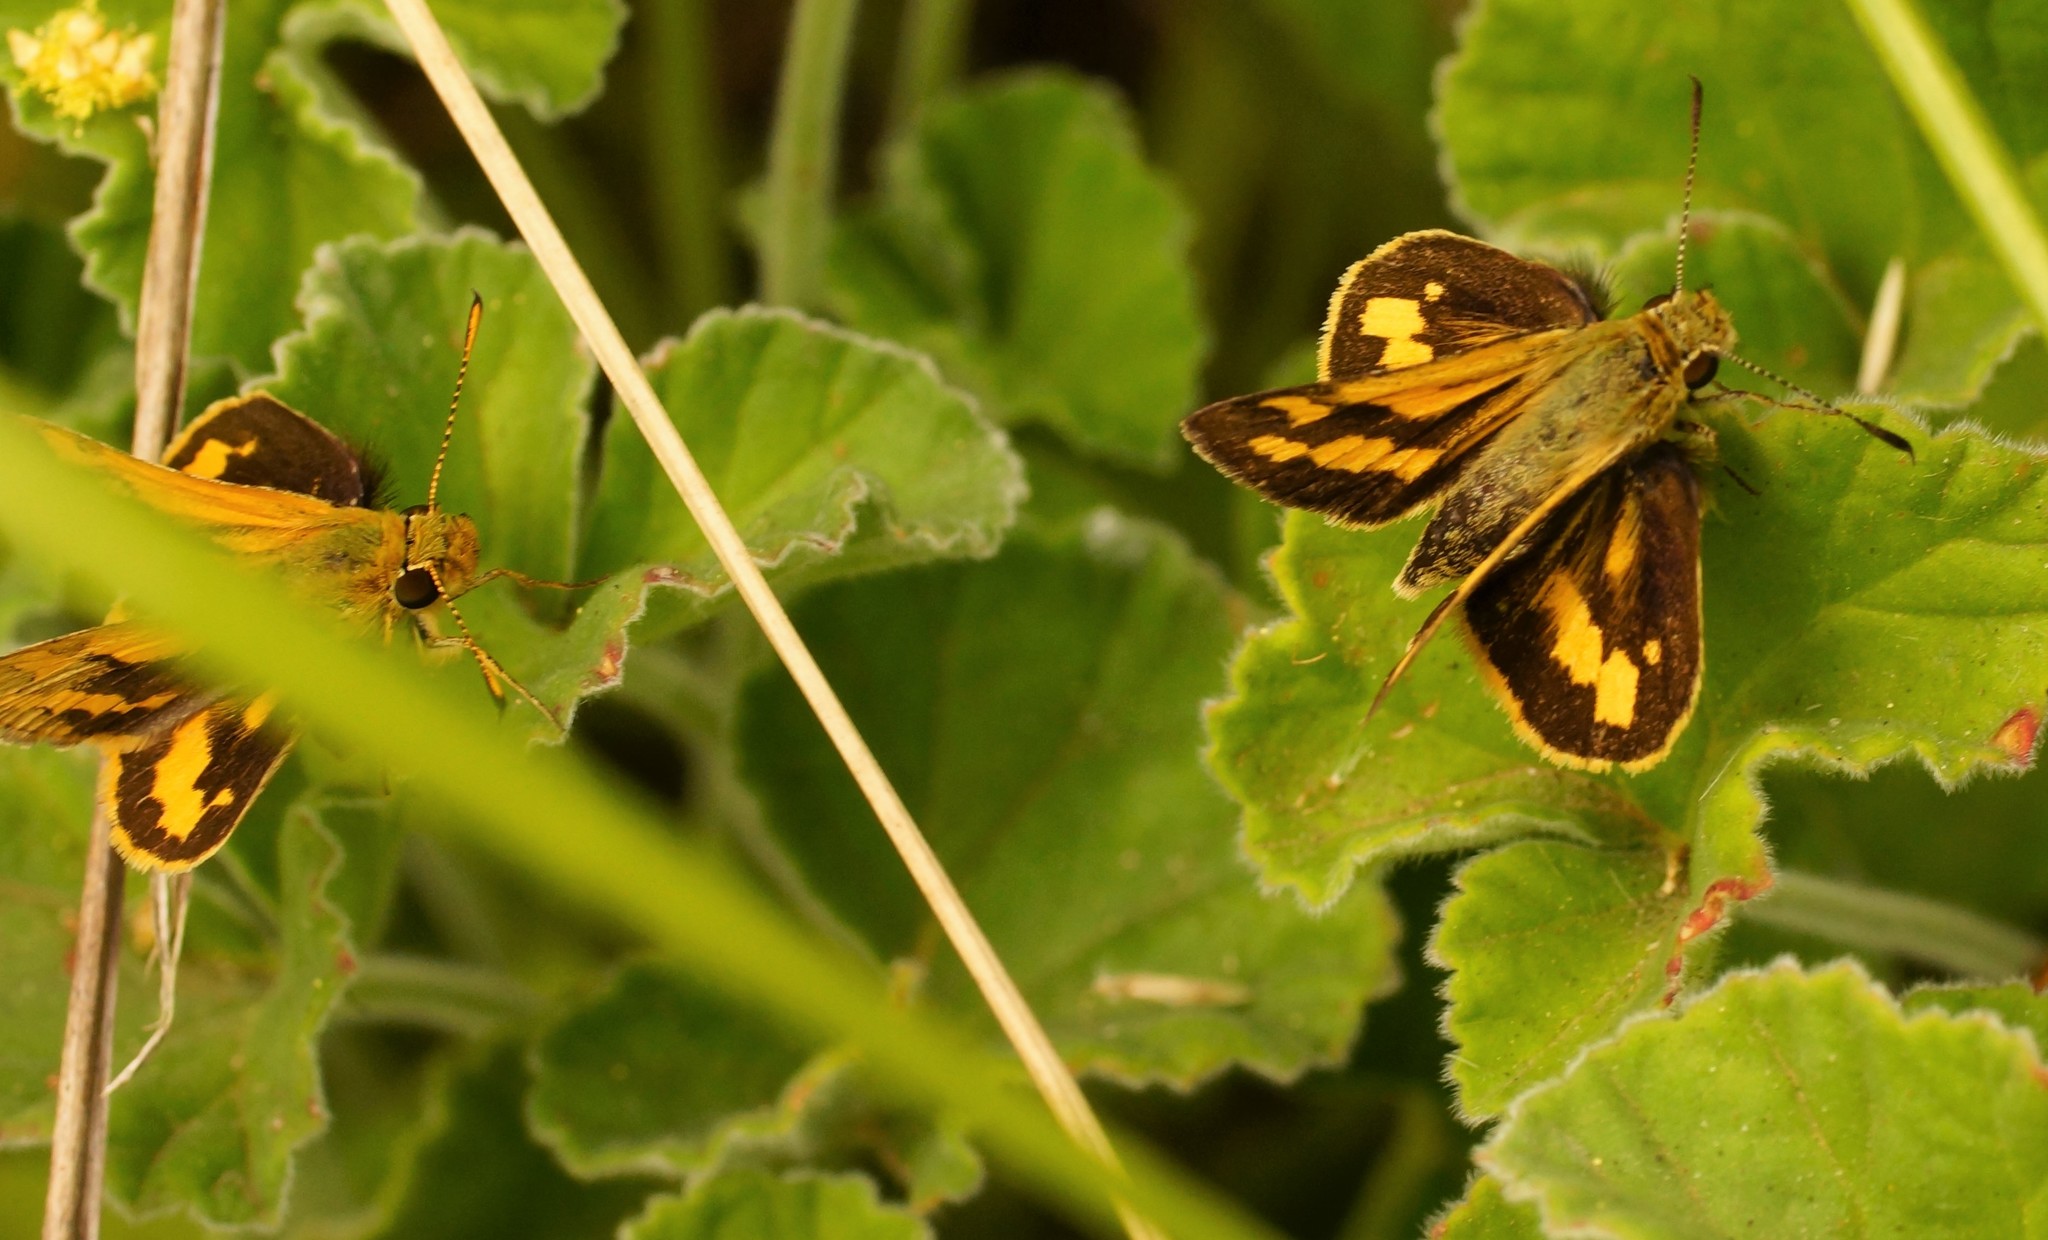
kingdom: Animalia
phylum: Arthropoda
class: Insecta
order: Lepidoptera
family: Hesperiidae
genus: Ocybadistes
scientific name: Ocybadistes walkeri
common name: Yellow-banded dart
